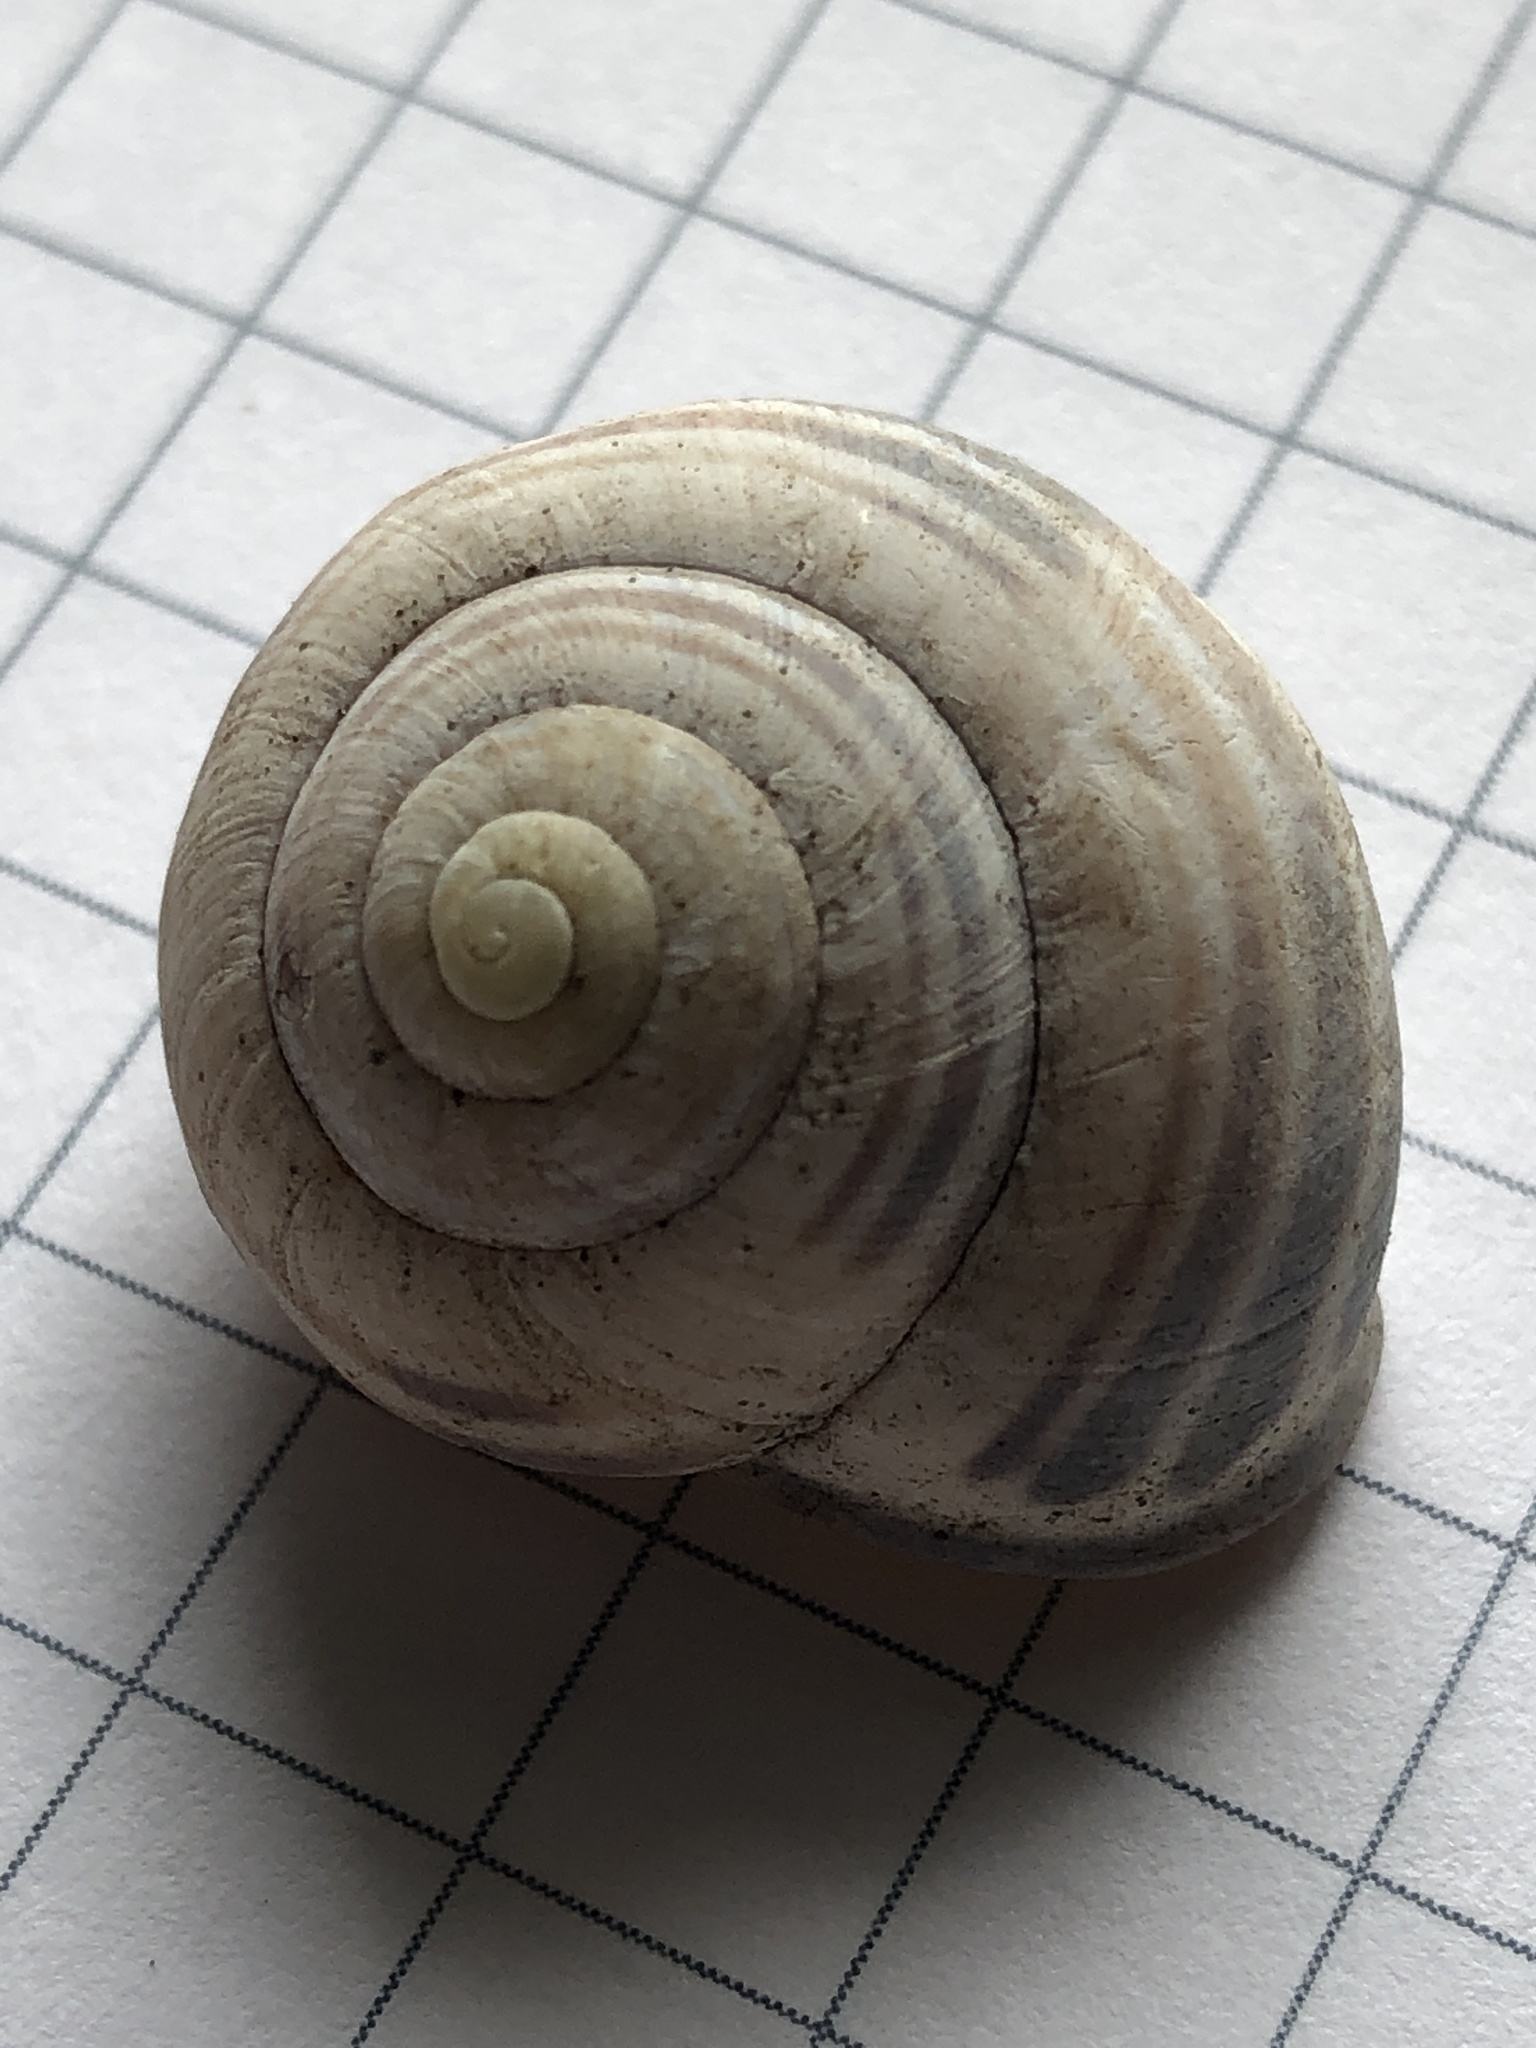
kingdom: Animalia
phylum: Mollusca
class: Gastropoda
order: Stylommatophora
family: Helicidae
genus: Cepaea
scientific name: Cepaea nemoralis
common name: Grovesnail
